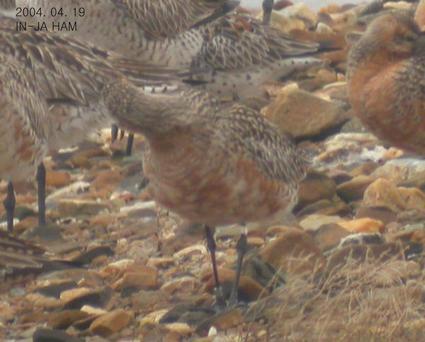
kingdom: Animalia
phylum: Chordata
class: Aves
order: Charadriiformes
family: Scolopacidae
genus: Limosa
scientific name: Limosa lapponica
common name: Bar-tailed godwit
